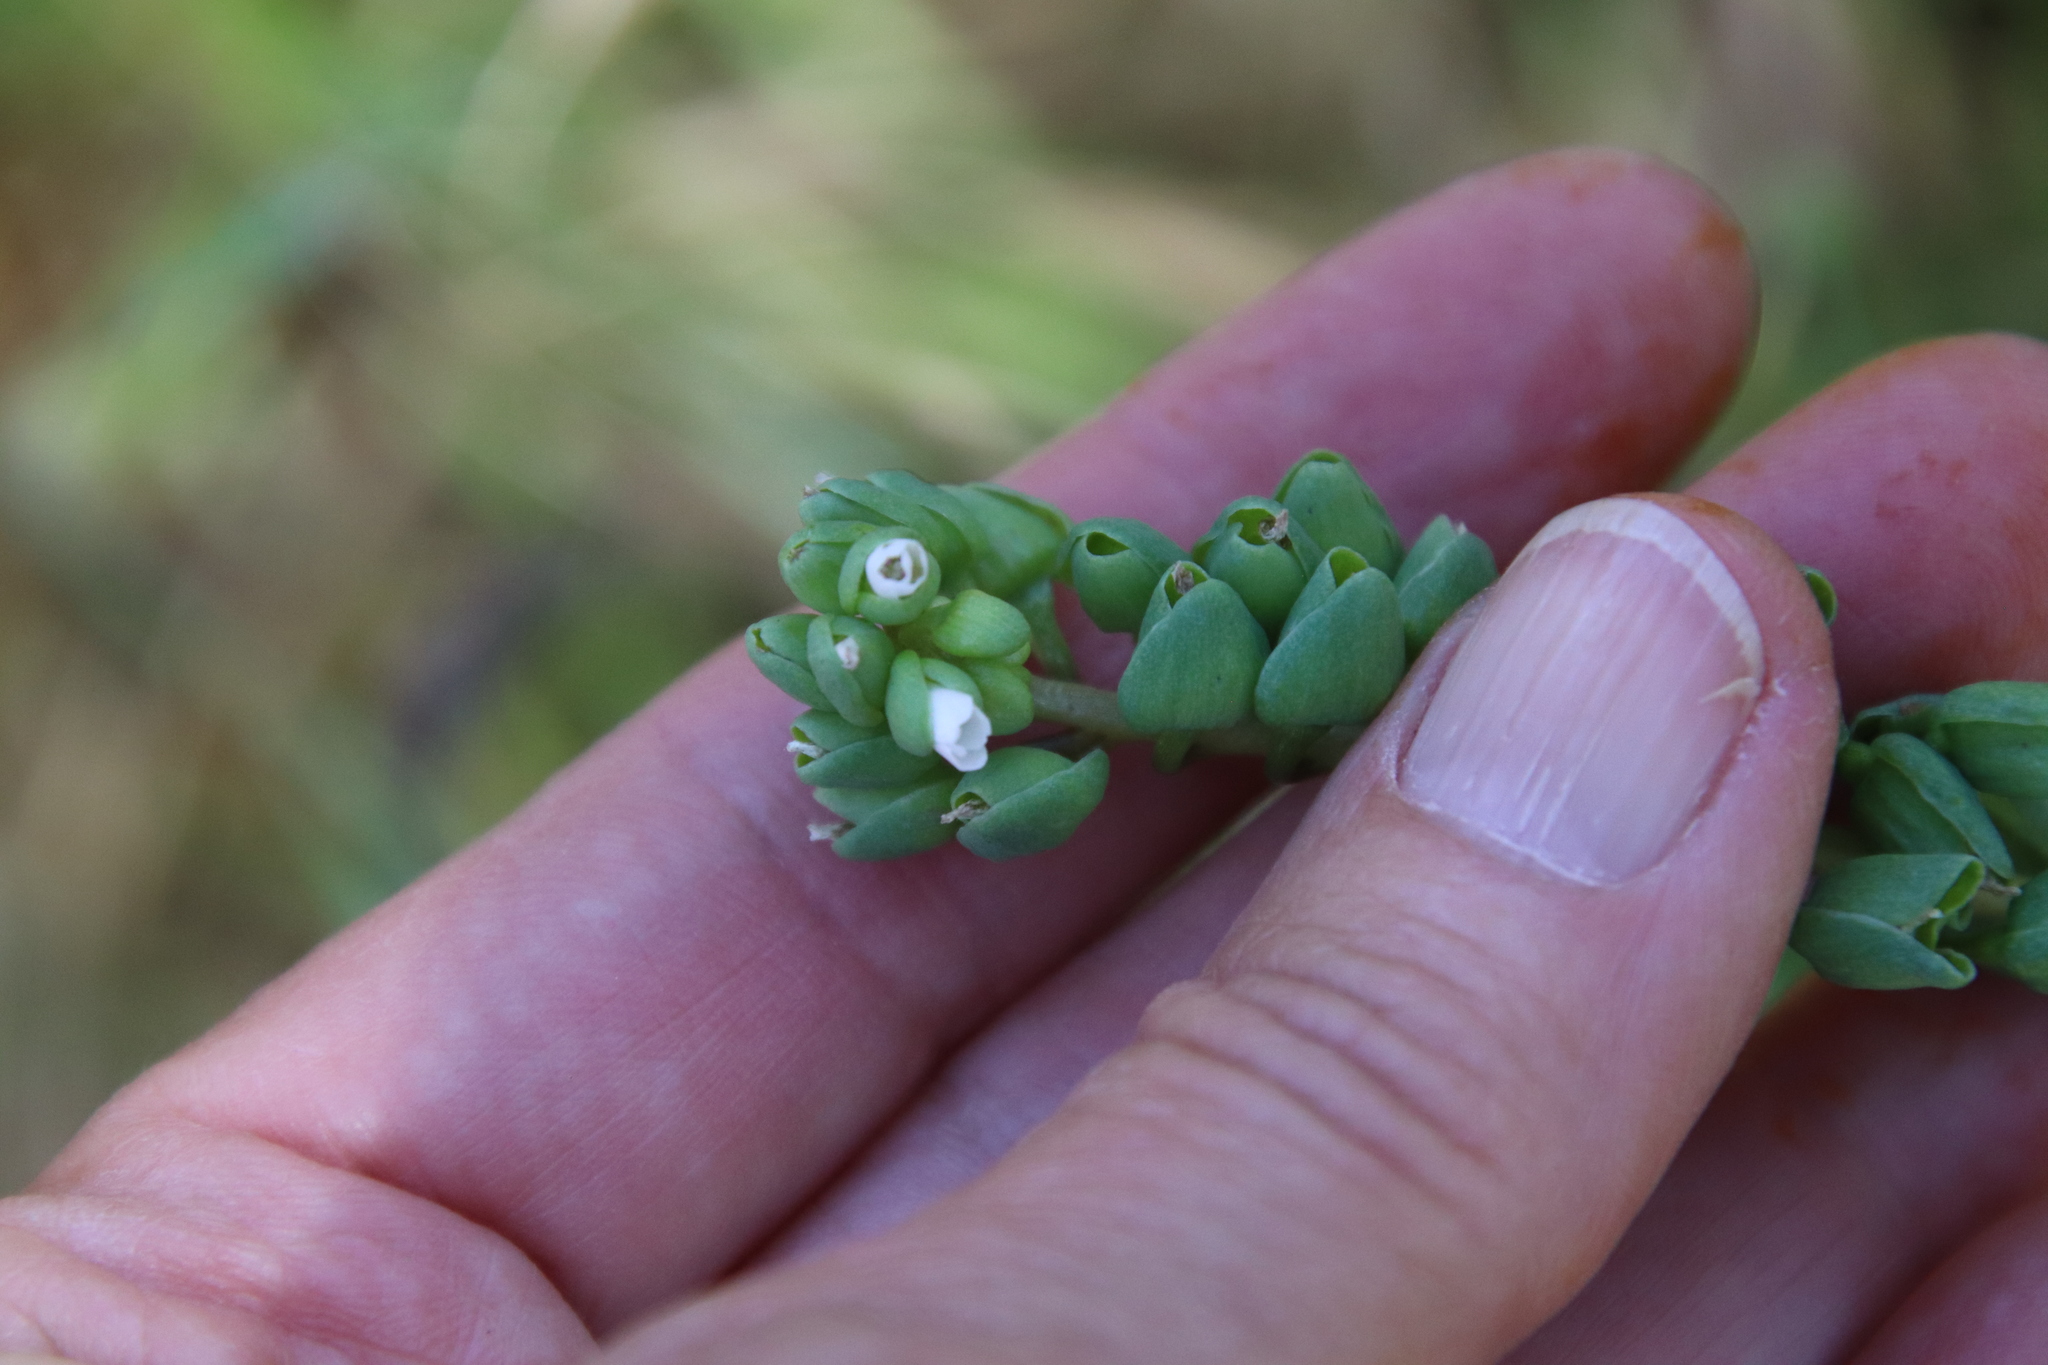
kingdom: Plantae
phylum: Tracheophyta
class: Magnoliopsida
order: Caryophyllales
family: Montiaceae
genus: Claytonia
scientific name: Claytonia perfoliata
